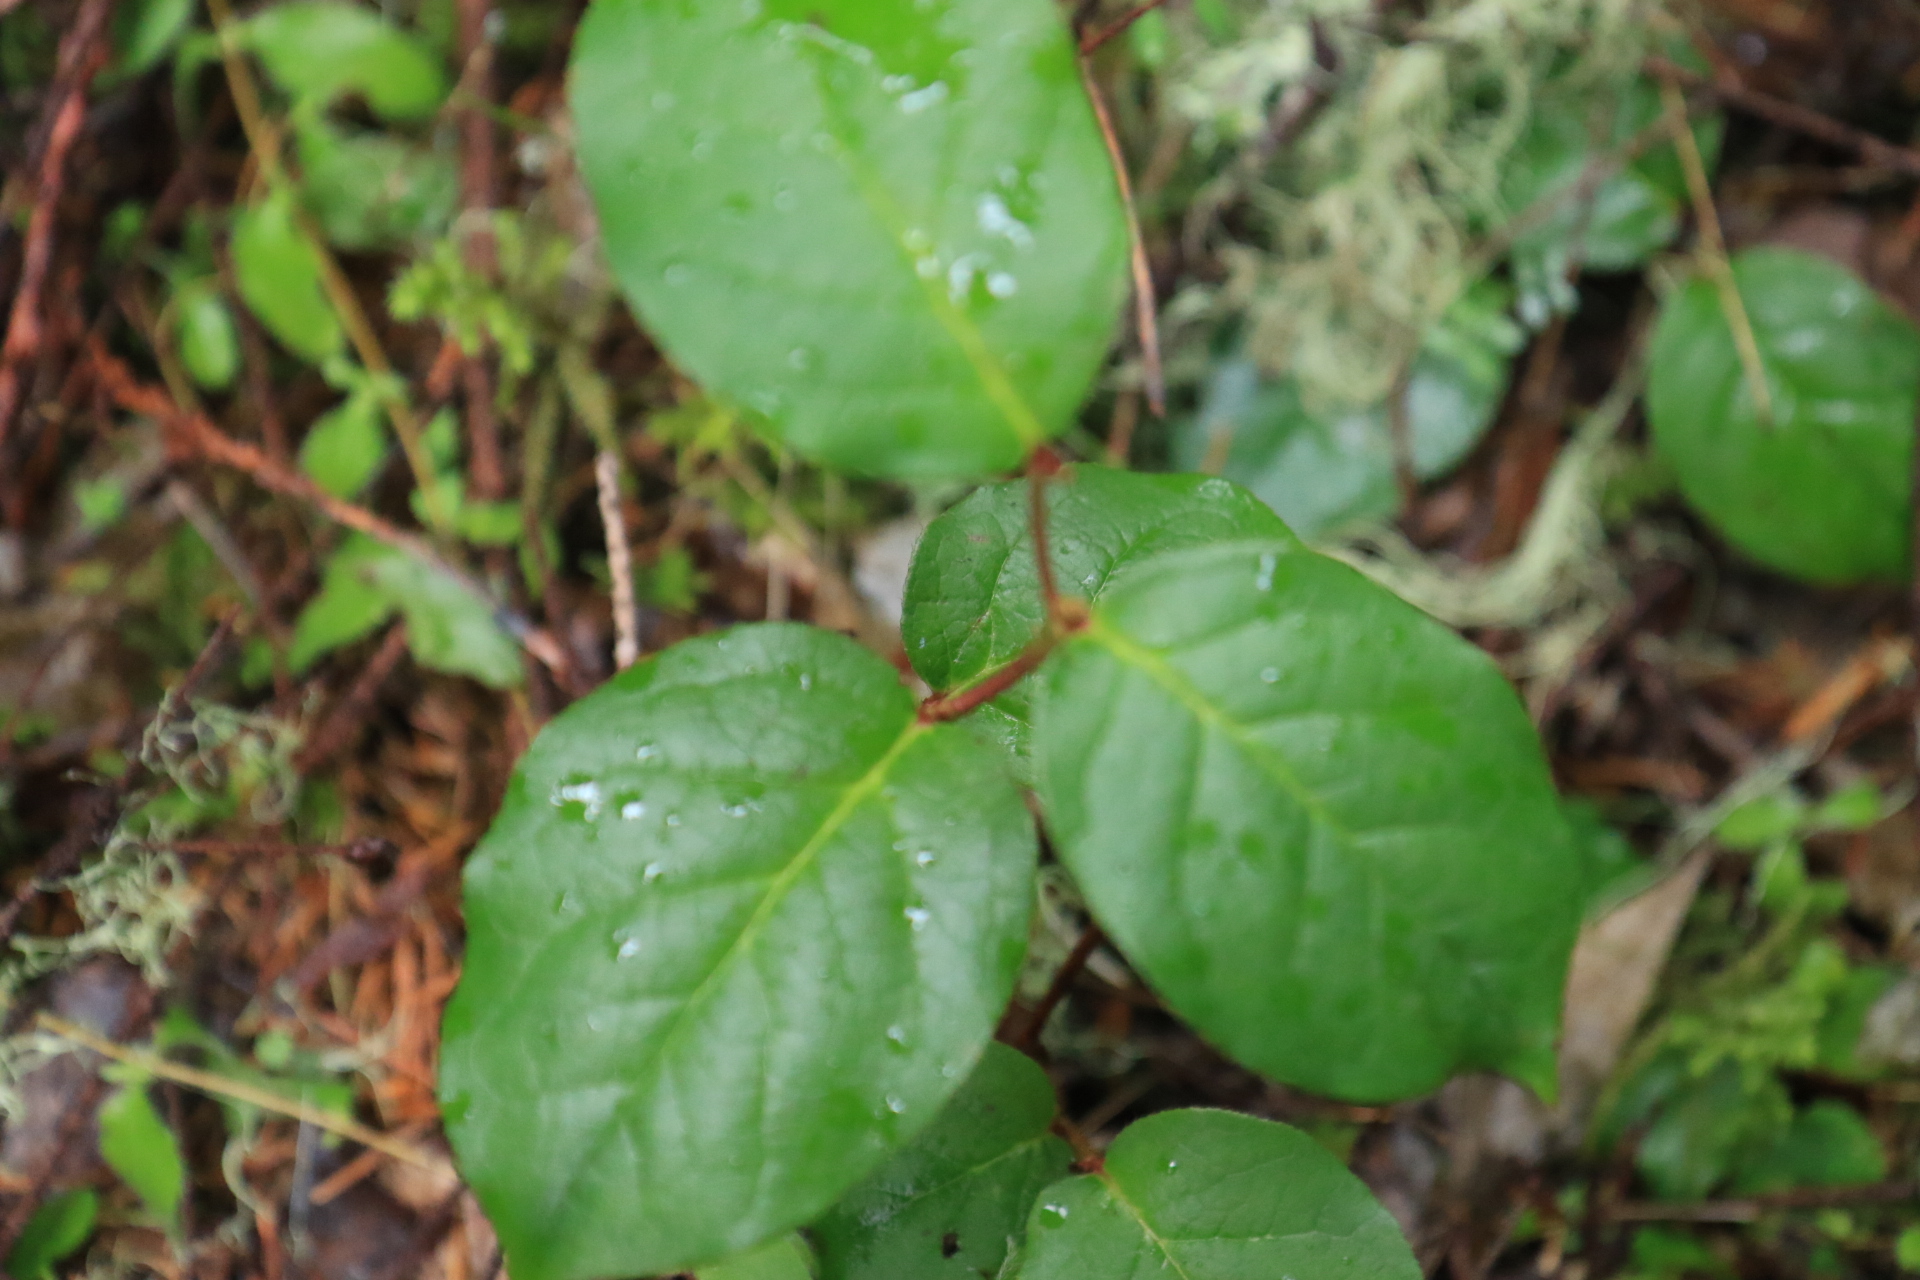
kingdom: Plantae
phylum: Tracheophyta
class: Magnoliopsida
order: Ericales
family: Ericaceae
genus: Gaultheria
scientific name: Gaultheria shallon
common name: Shallon
